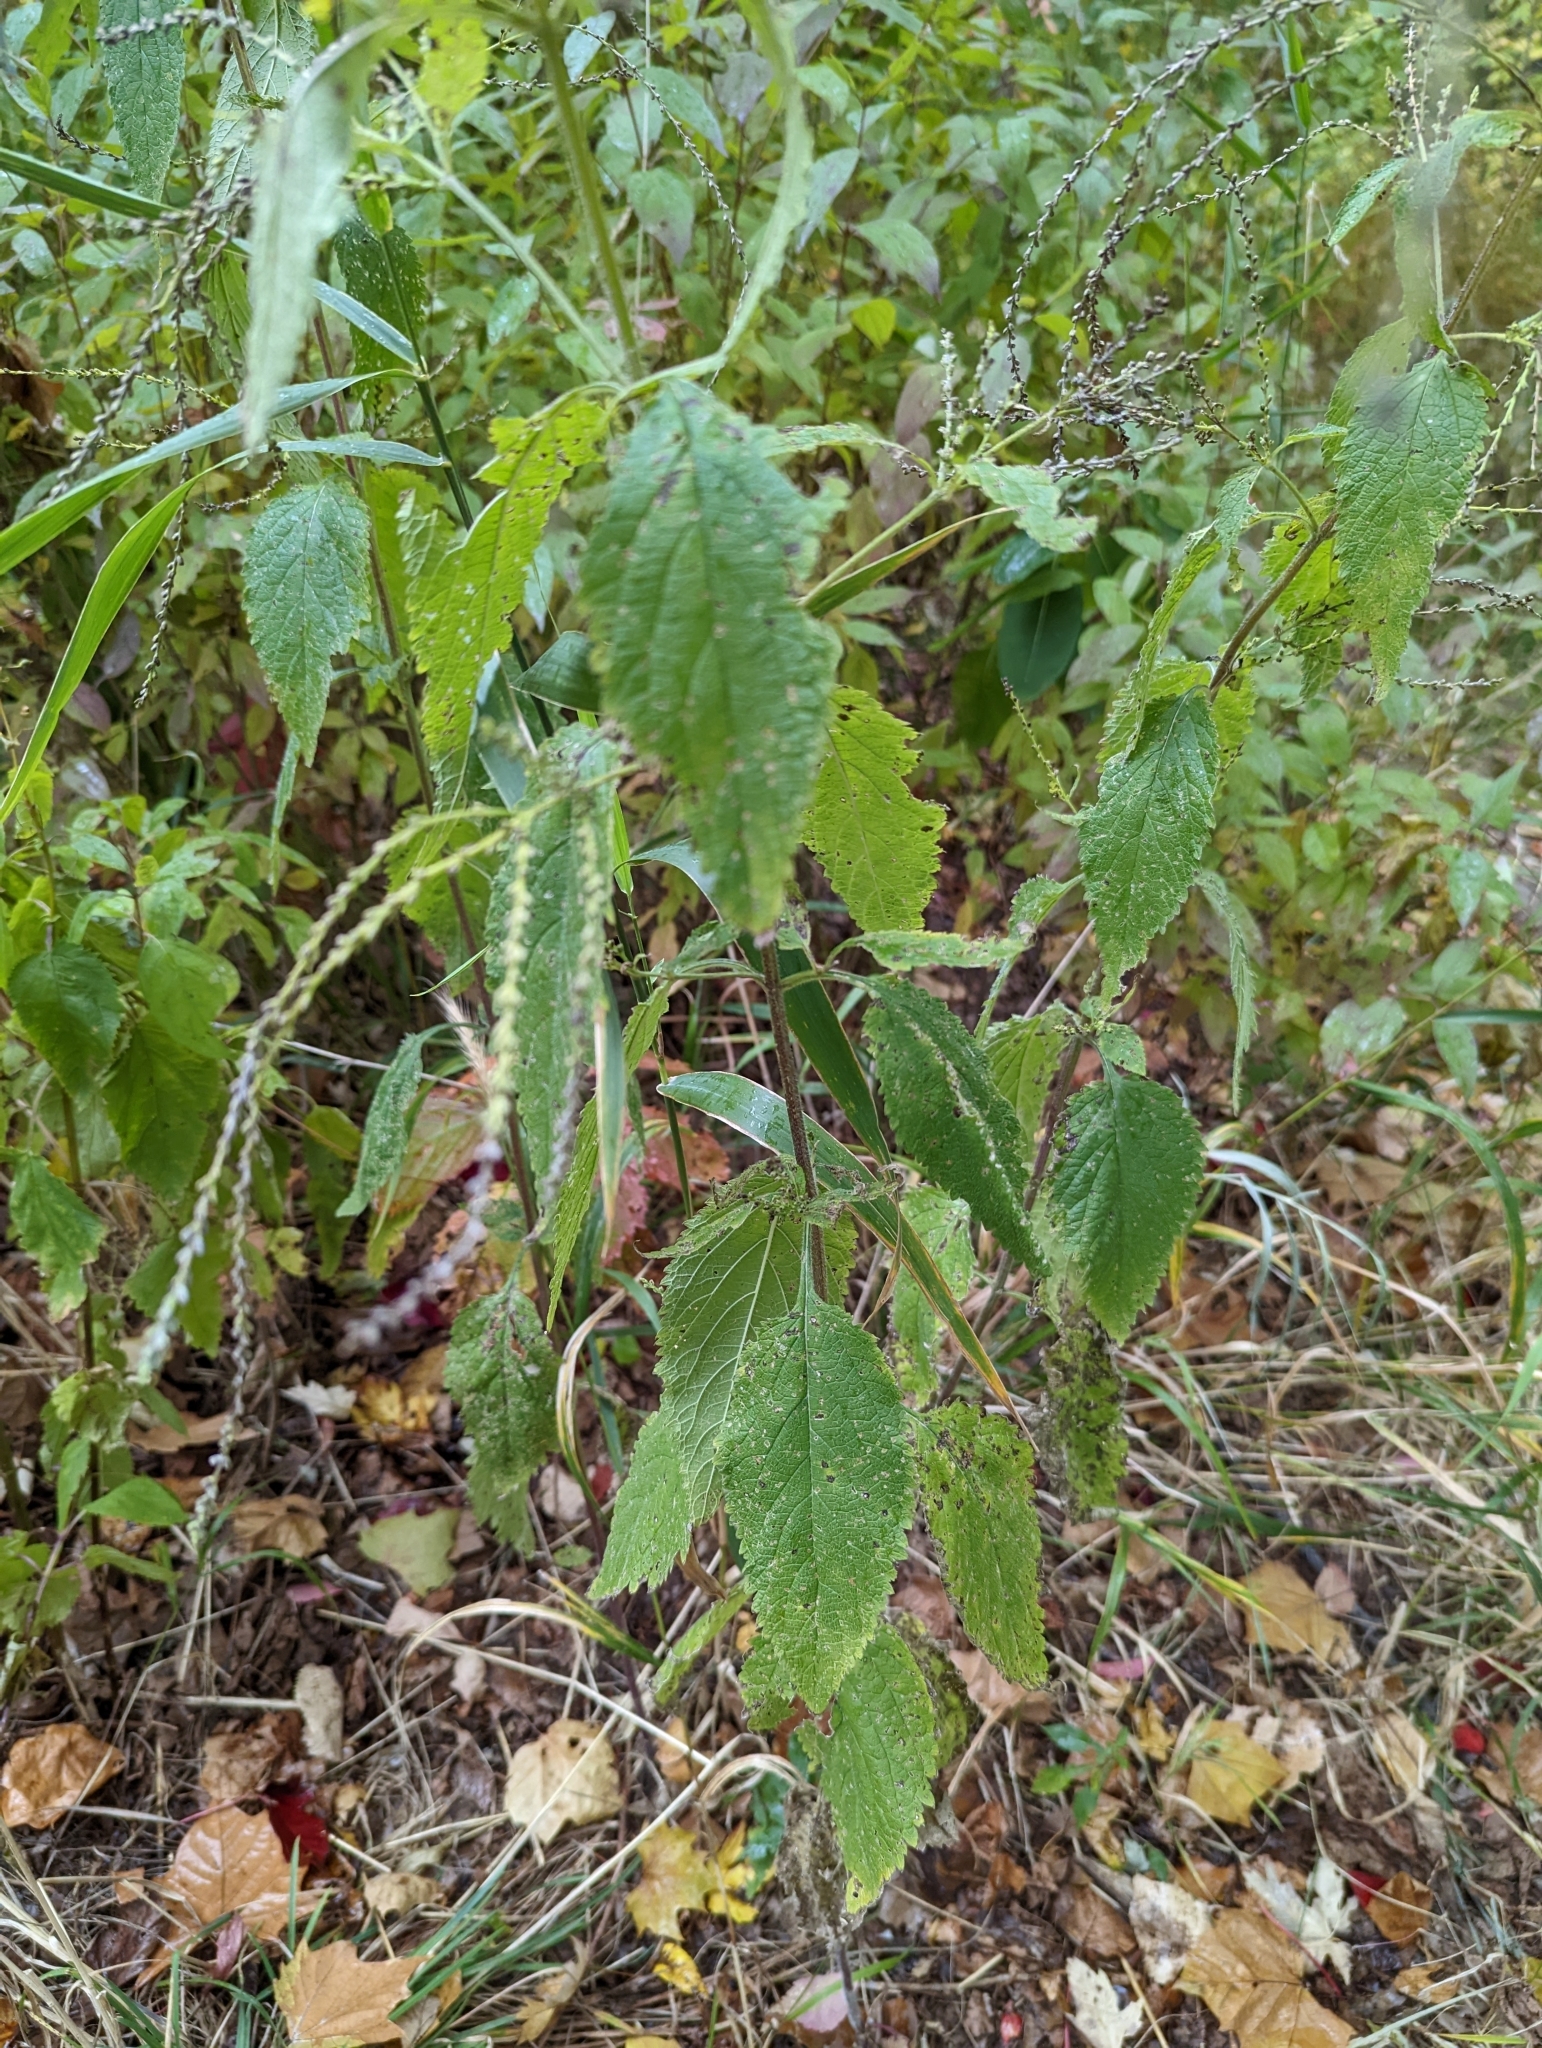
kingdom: Plantae
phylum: Tracheophyta
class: Magnoliopsida
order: Lamiales
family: Verbenaceae
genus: Verbena
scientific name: Verbena urticifolia
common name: Nettle-leaved vervain
